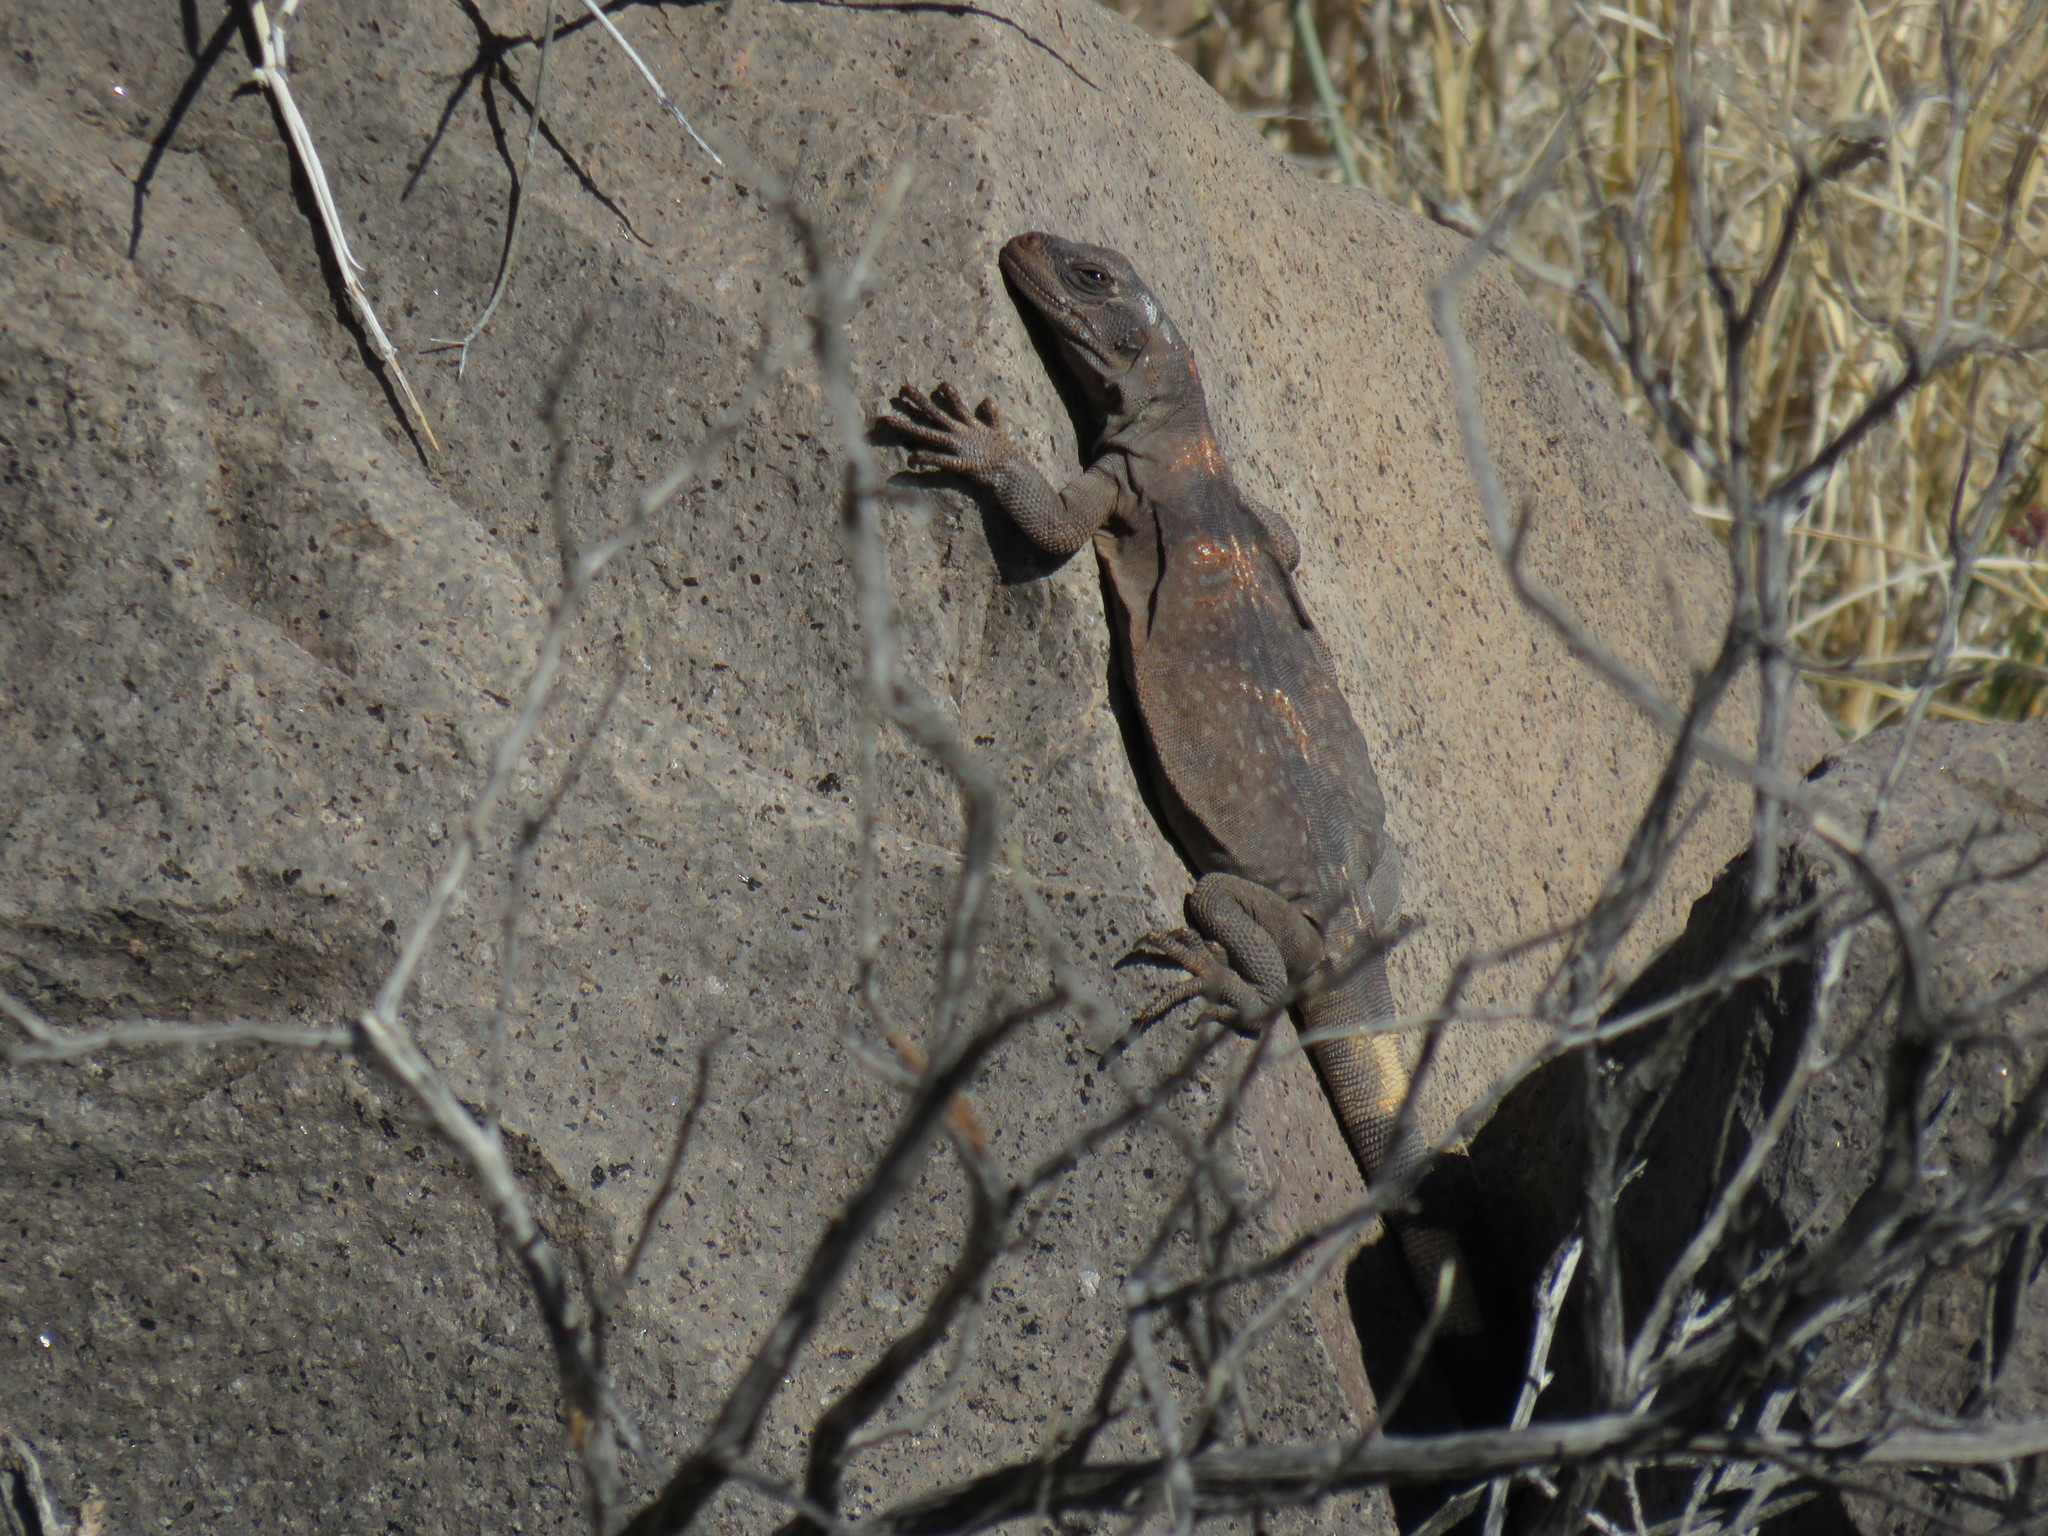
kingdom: Animalia
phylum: Chordata
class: Squamata
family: Iguanidae
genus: Sauromalus
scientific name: Sauromalus ater
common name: Northern chuckwalla
